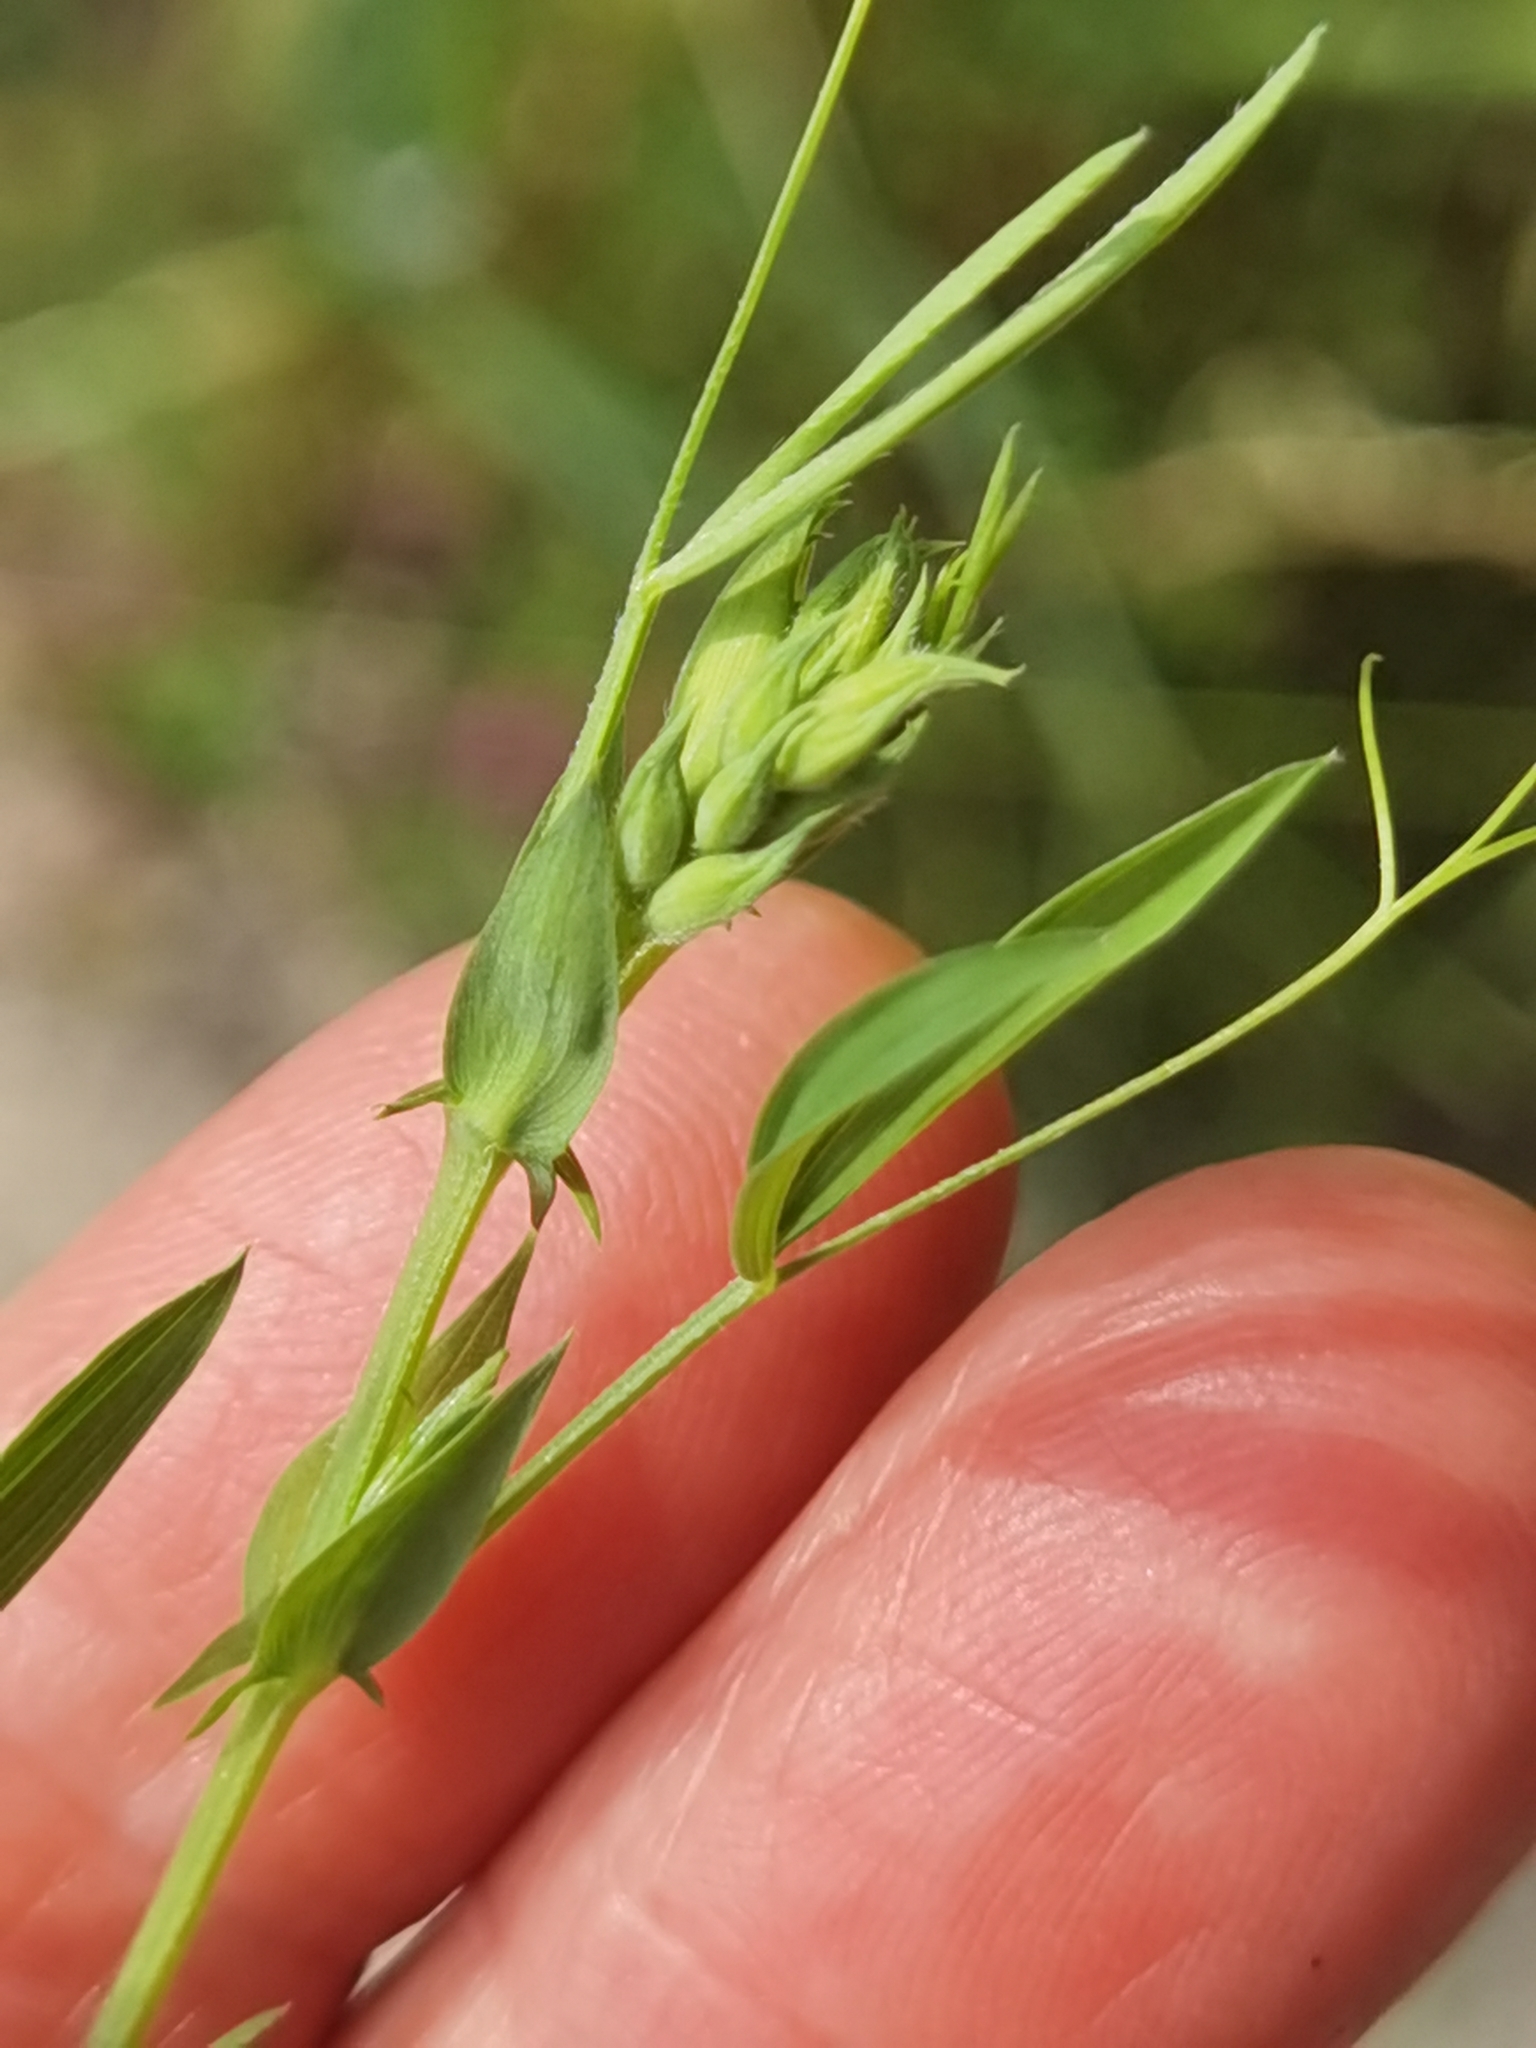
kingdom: Plantae
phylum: Tracheophyta
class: Magnoliopsida
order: Fabales
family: Fabaceae
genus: Lathyrus
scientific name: Lathyrus pratensis
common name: Meadow vetchling
